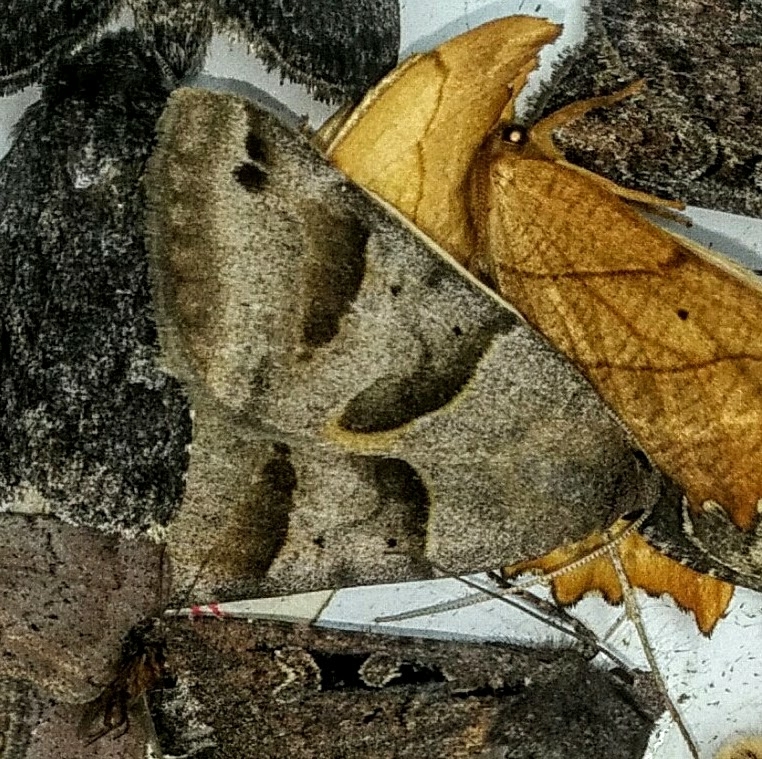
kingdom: Animalia
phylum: Arthropoda
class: Insecta
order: Lepidoptera
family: Erebidae
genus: Caenurgina
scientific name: Caenurgina erechtea
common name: Forage looper moth
